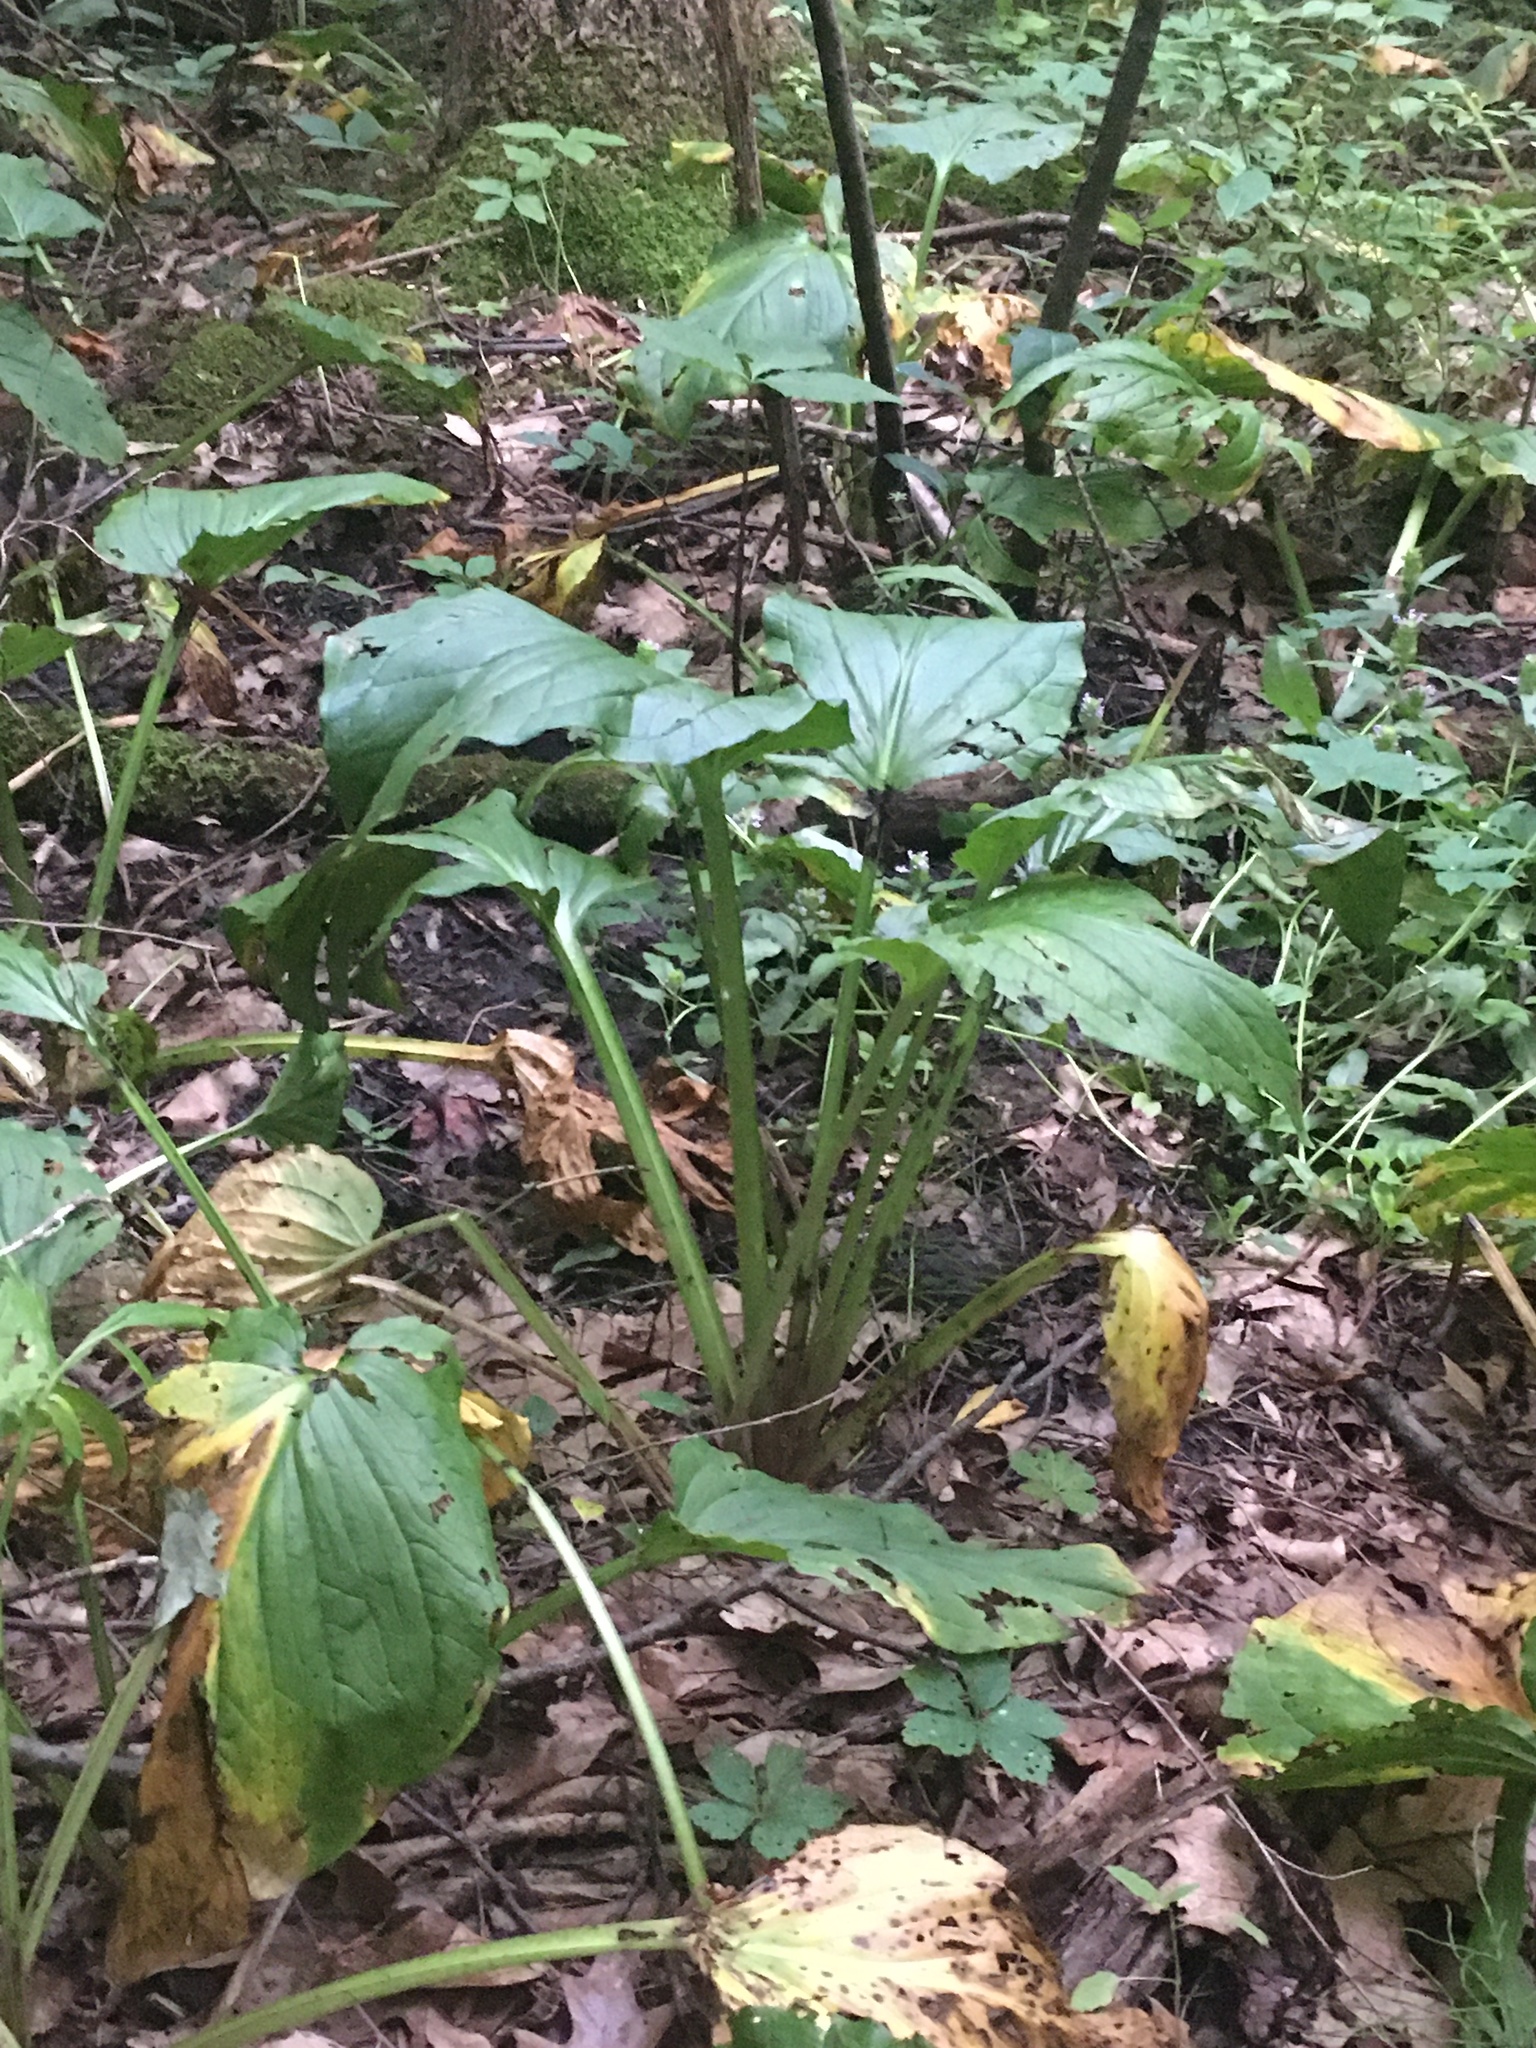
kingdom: Plantae
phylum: Tracheophyta
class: Liliopsida
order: Alismatales
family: Araceae
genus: Symplocarpus
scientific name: Symplocarpus foetidus
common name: Eastern skunk cabbage
